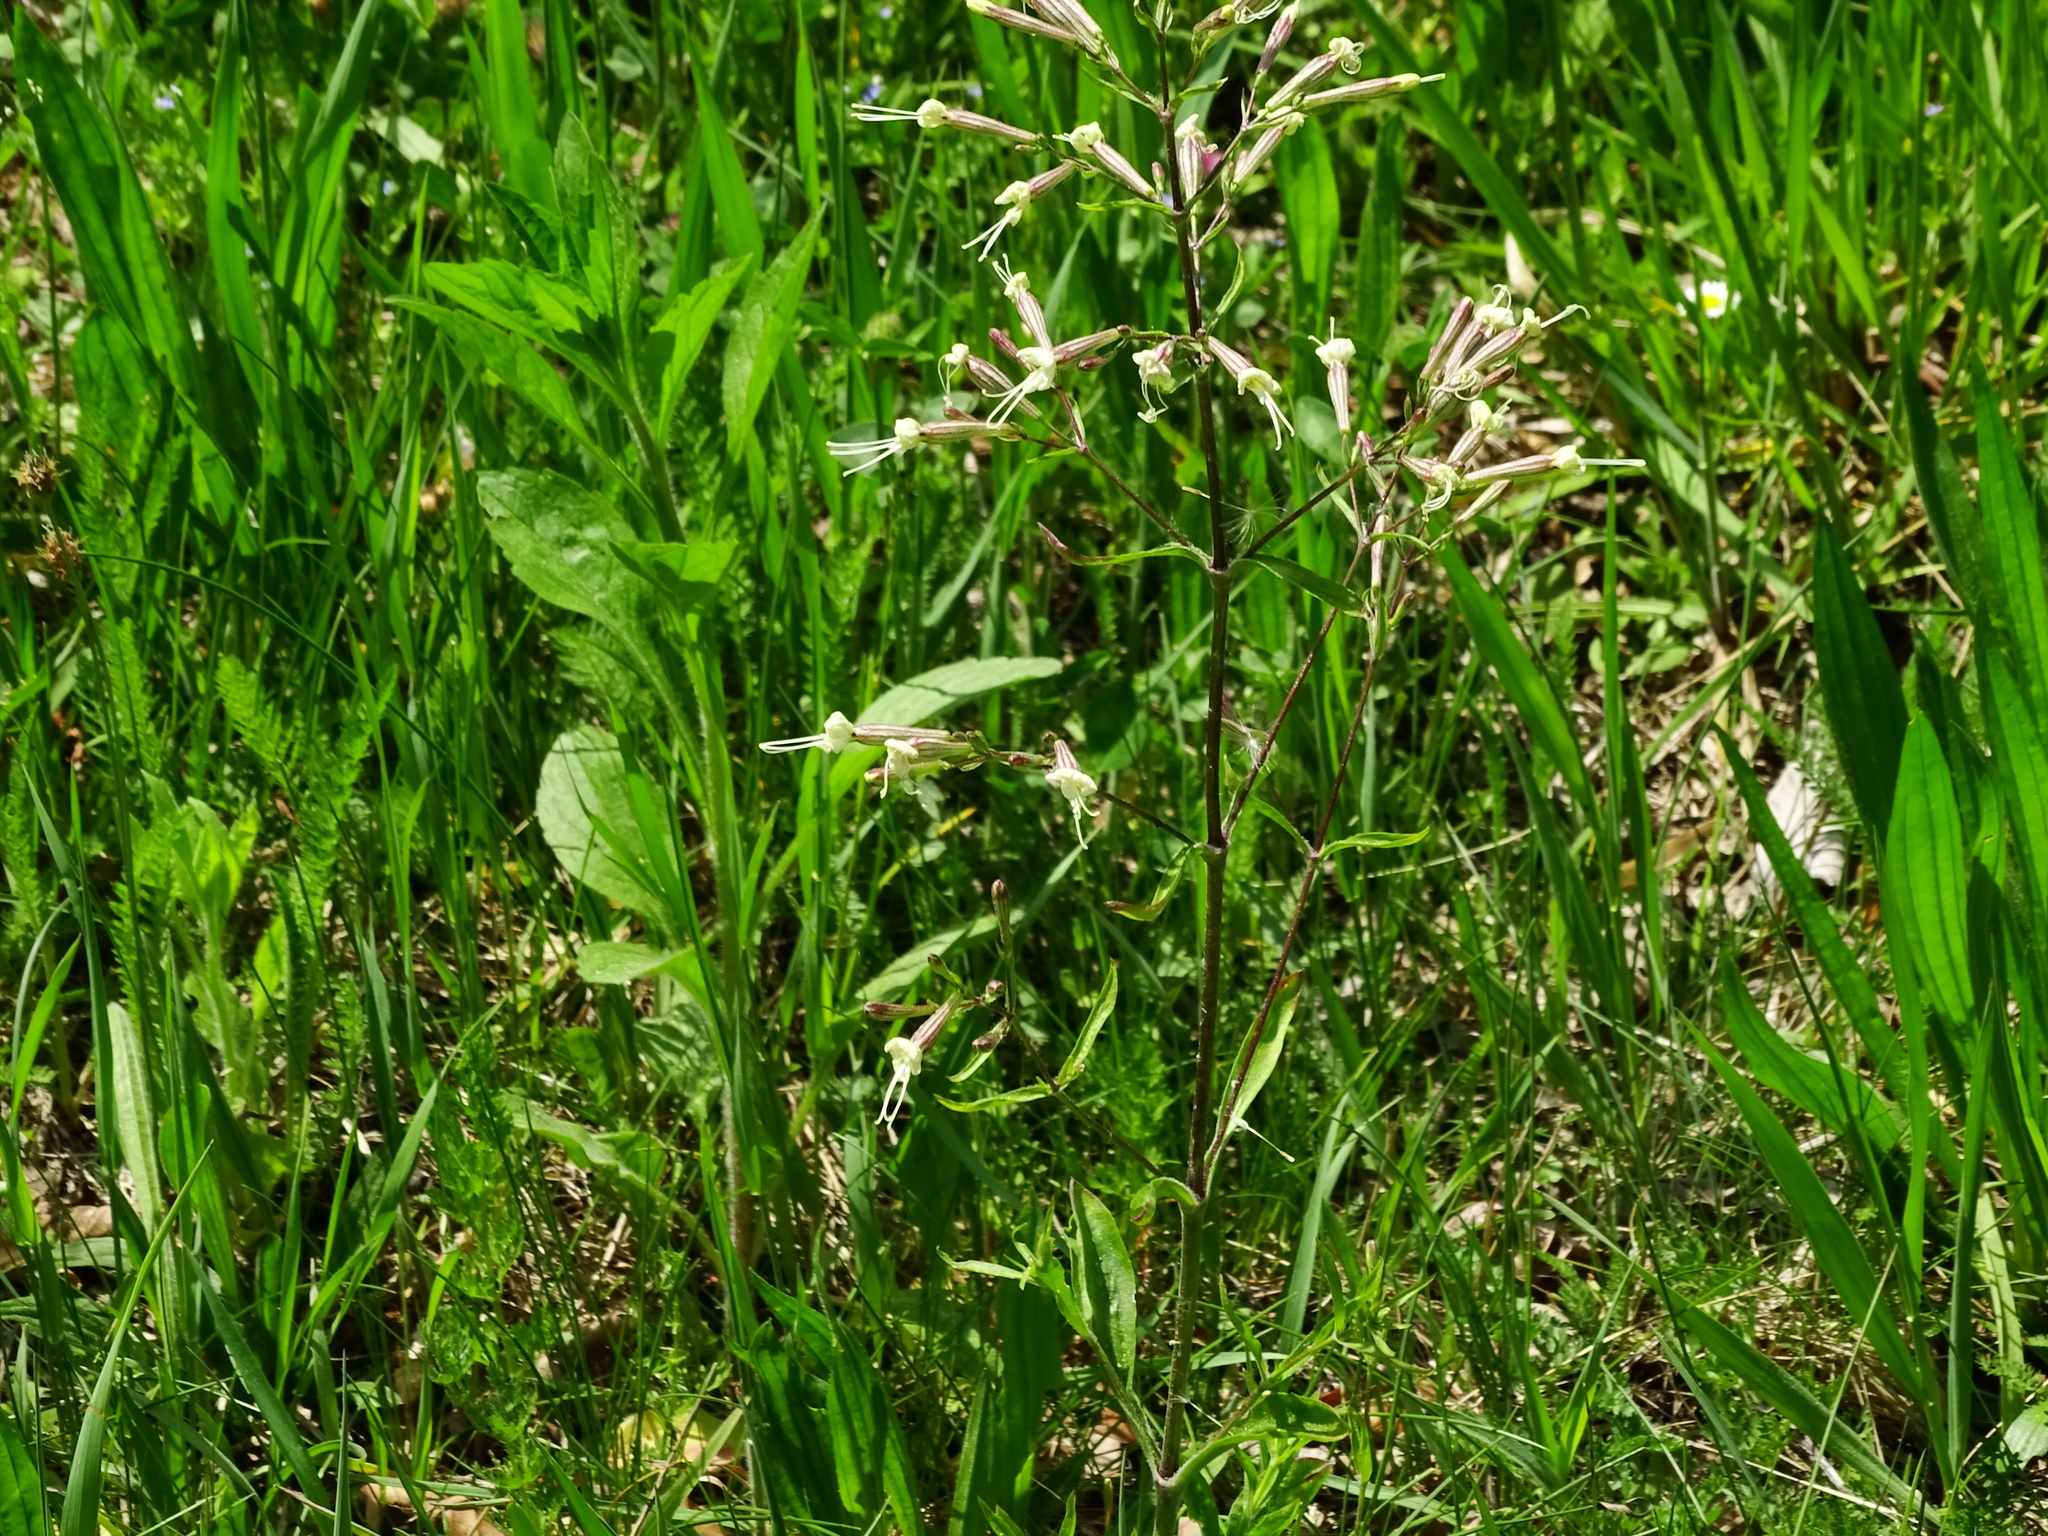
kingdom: Plantae
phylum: Tracheophyta
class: Magnoliopsida
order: Caryophyllales
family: Caryophyllaceae
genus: Silene
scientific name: Silene nemoralis
